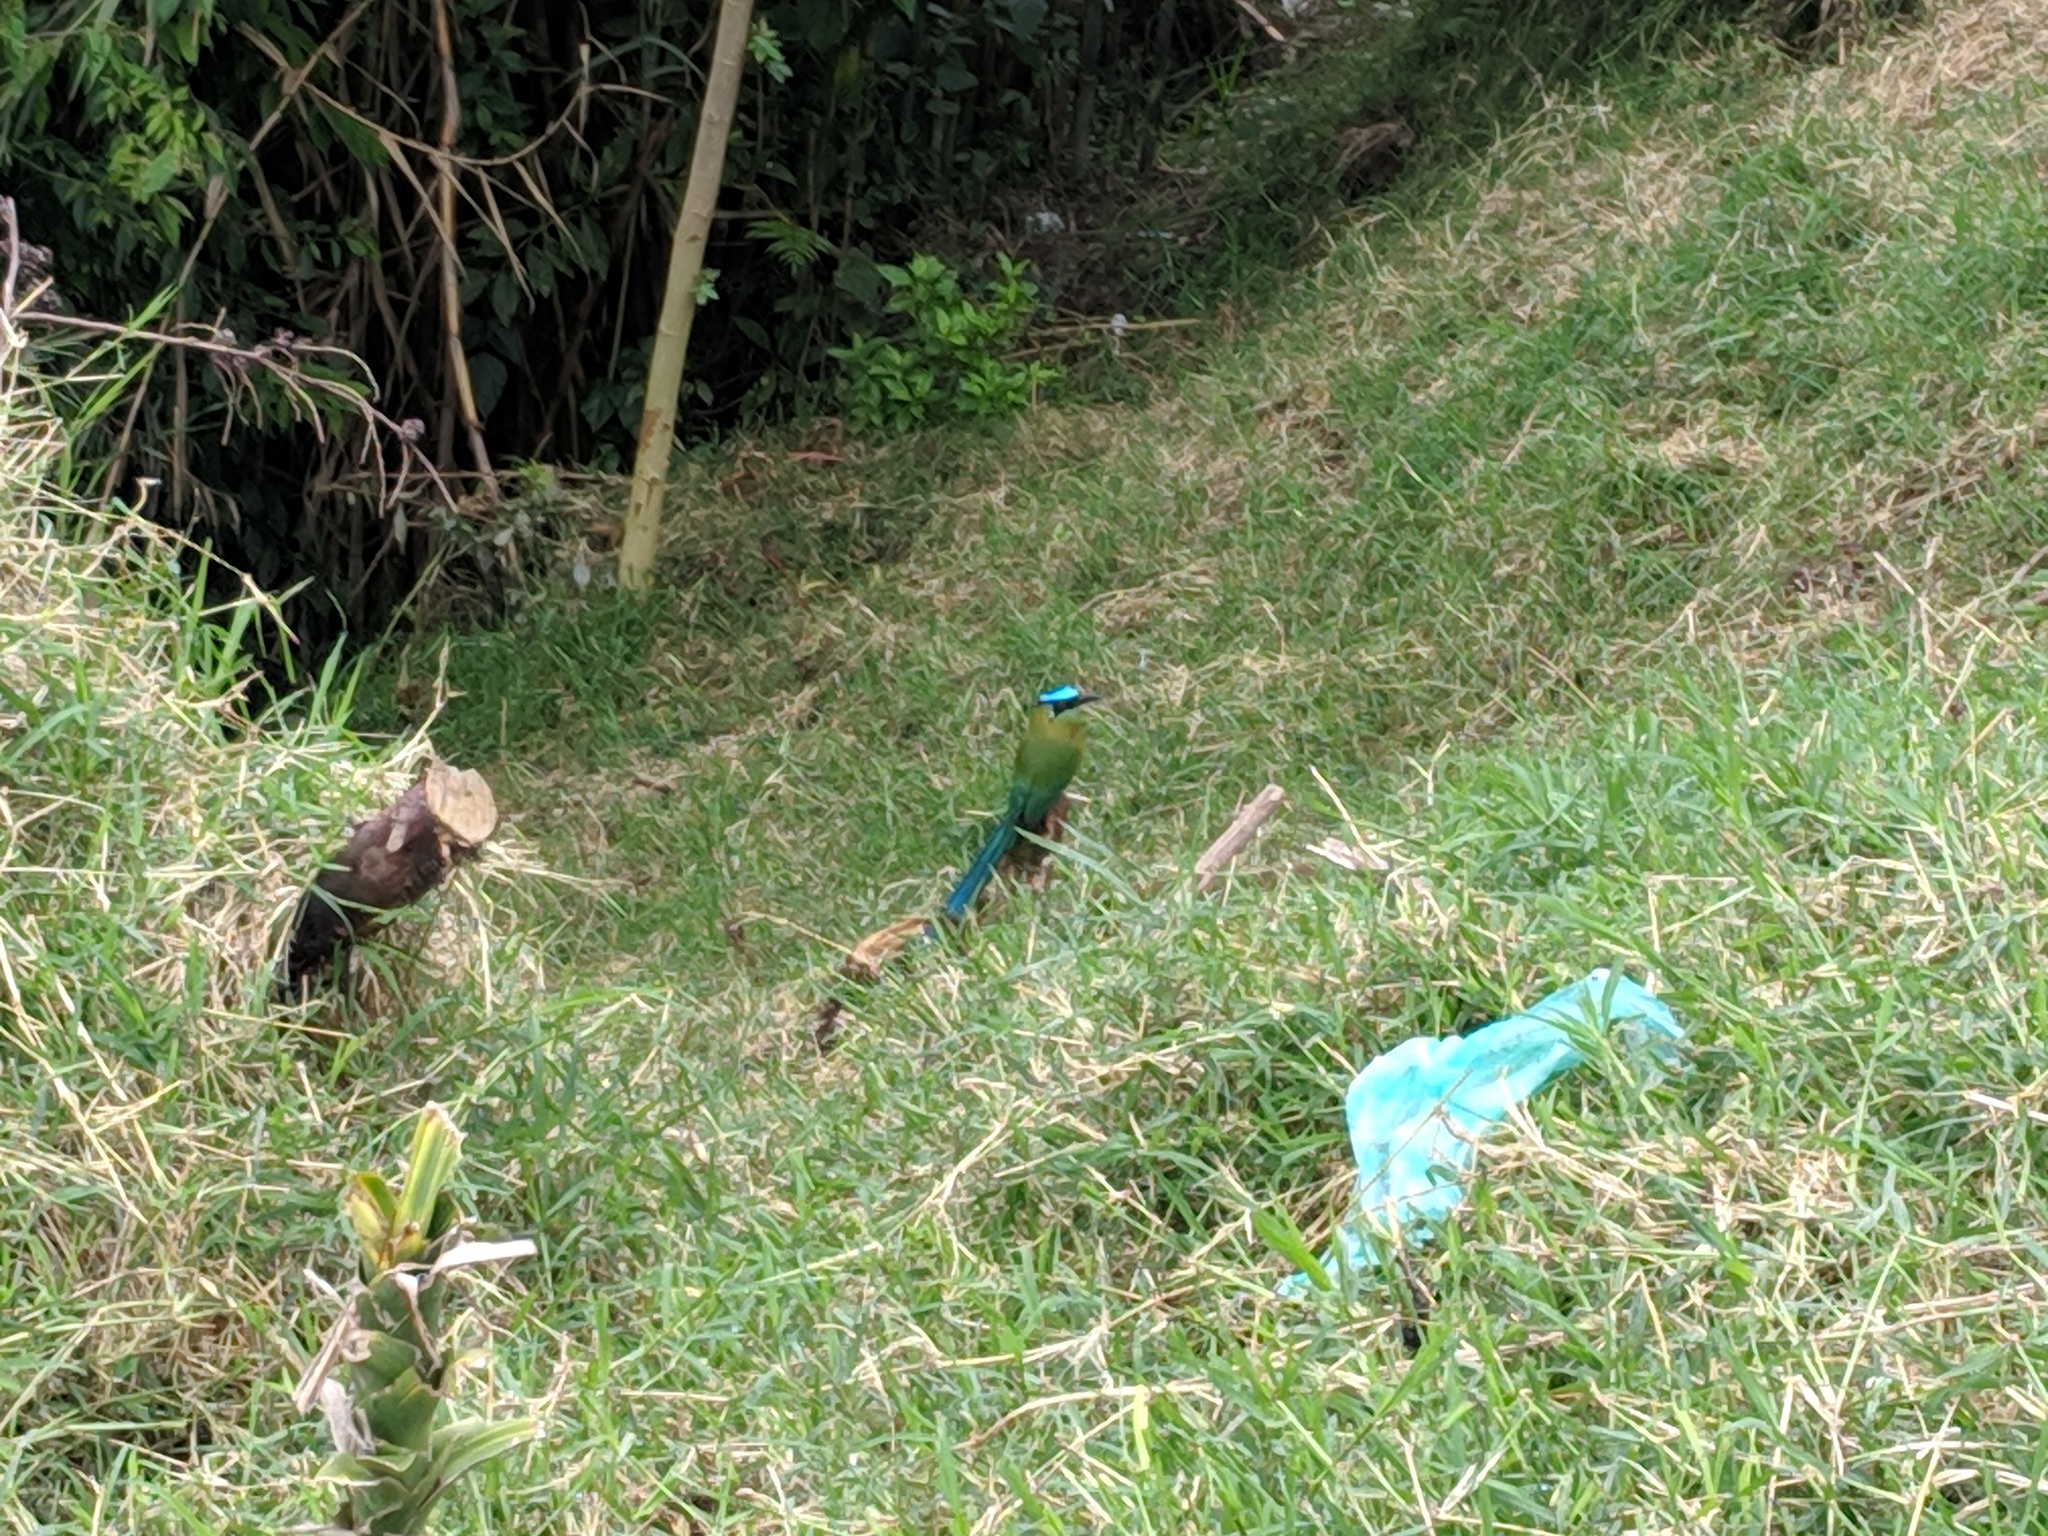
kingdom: Animalia
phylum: Chordata
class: Aves
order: Coraciiformes
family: Momotidae
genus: Momotus
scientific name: Momotus aequatorialis
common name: Andean motmot
